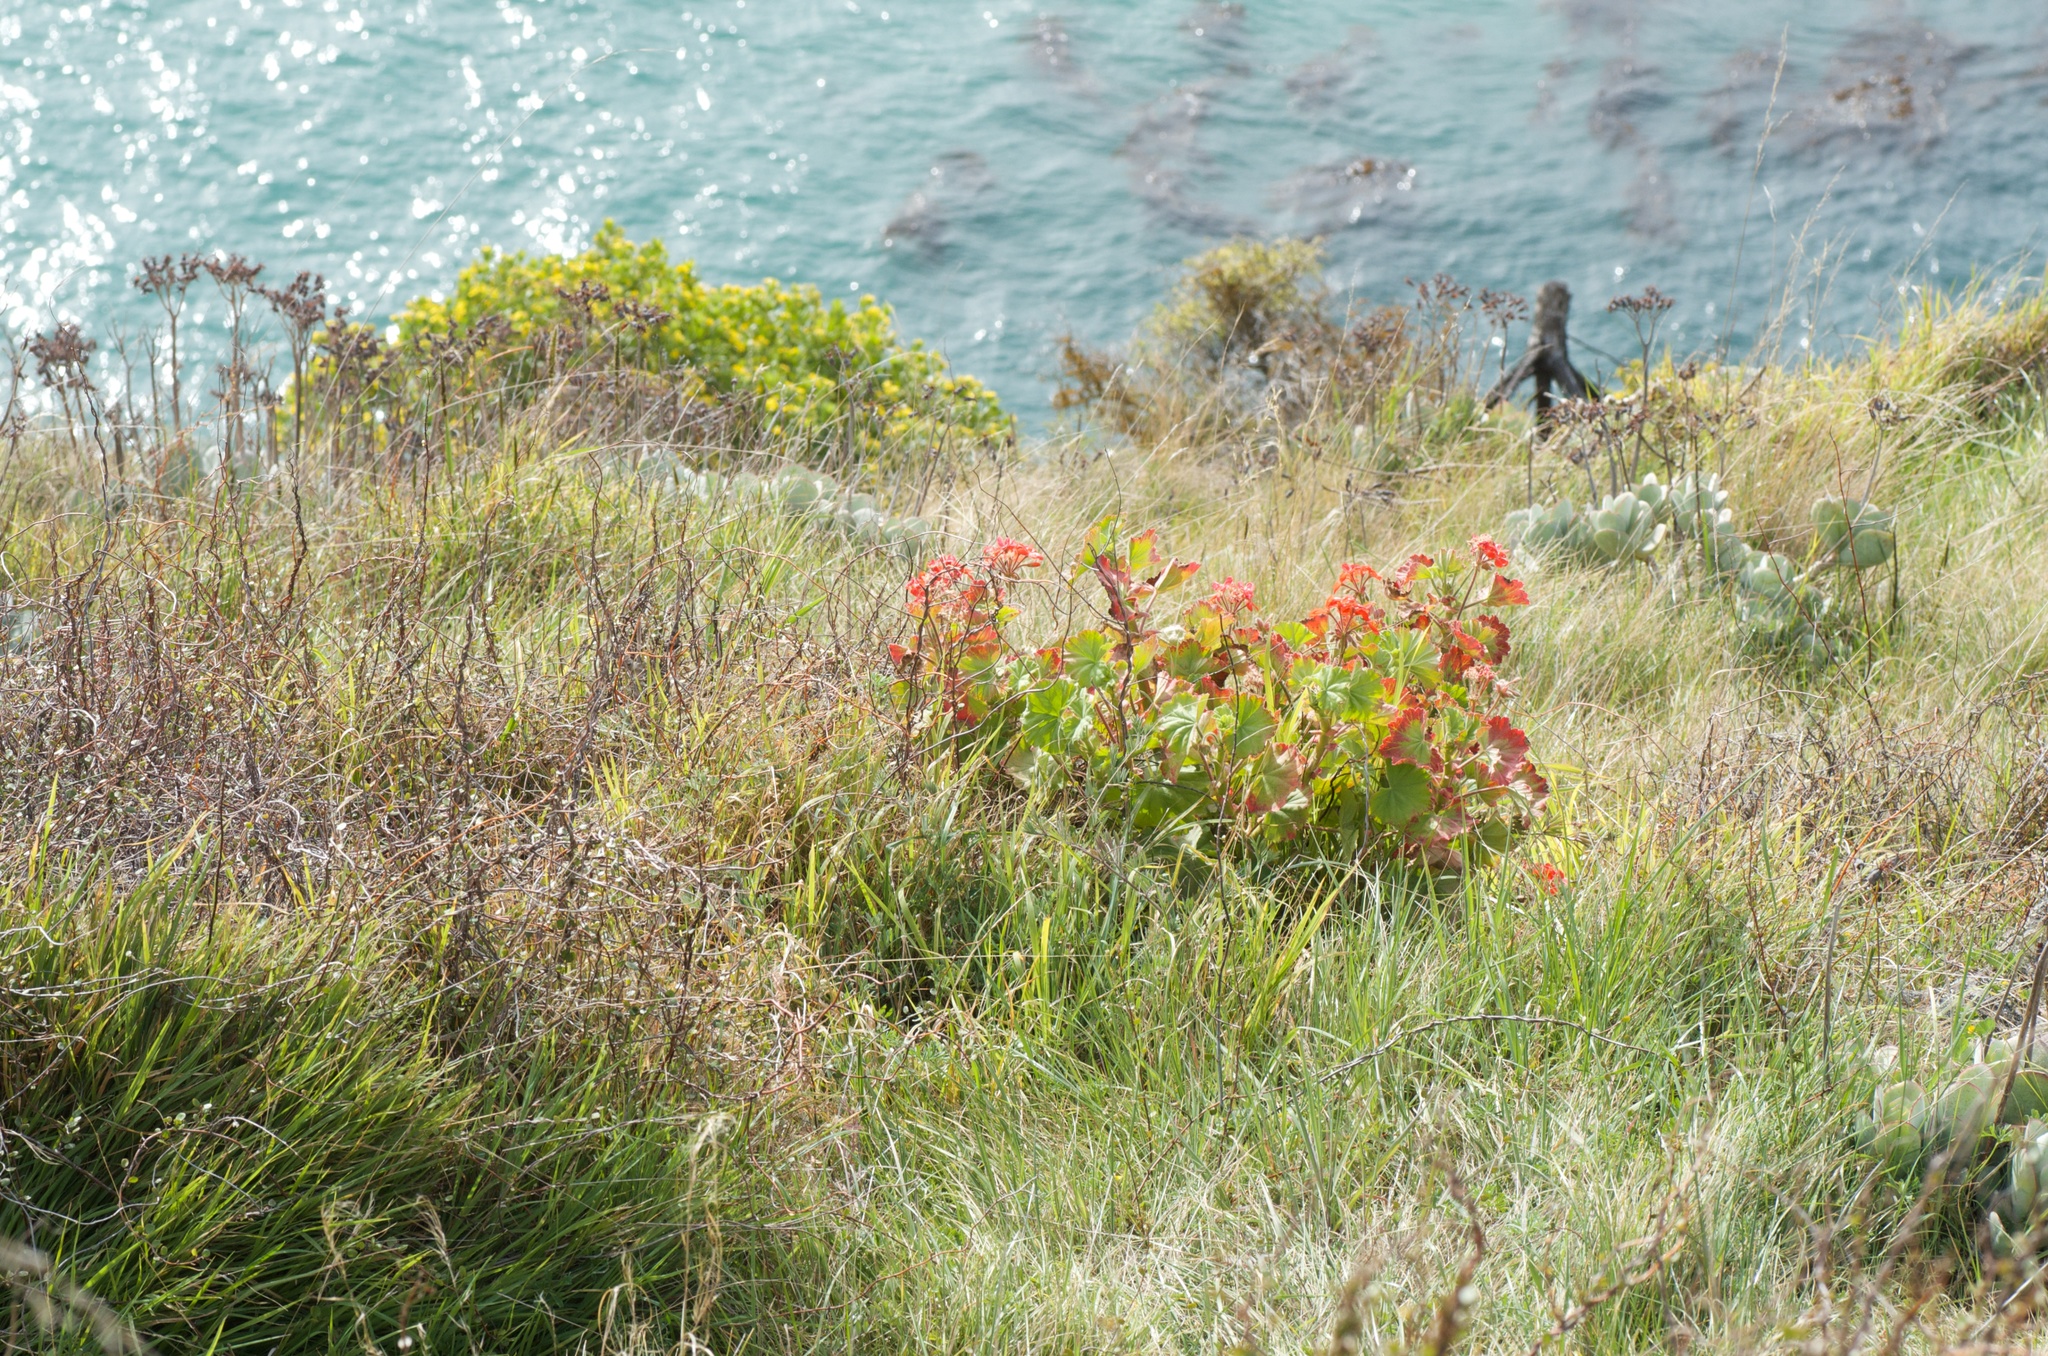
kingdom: Plantae
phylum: Tracheophyta
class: Magnoliopsida
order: Geraniales
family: Geraniaceae
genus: Pelargonium
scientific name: Pelargonium hybridum
